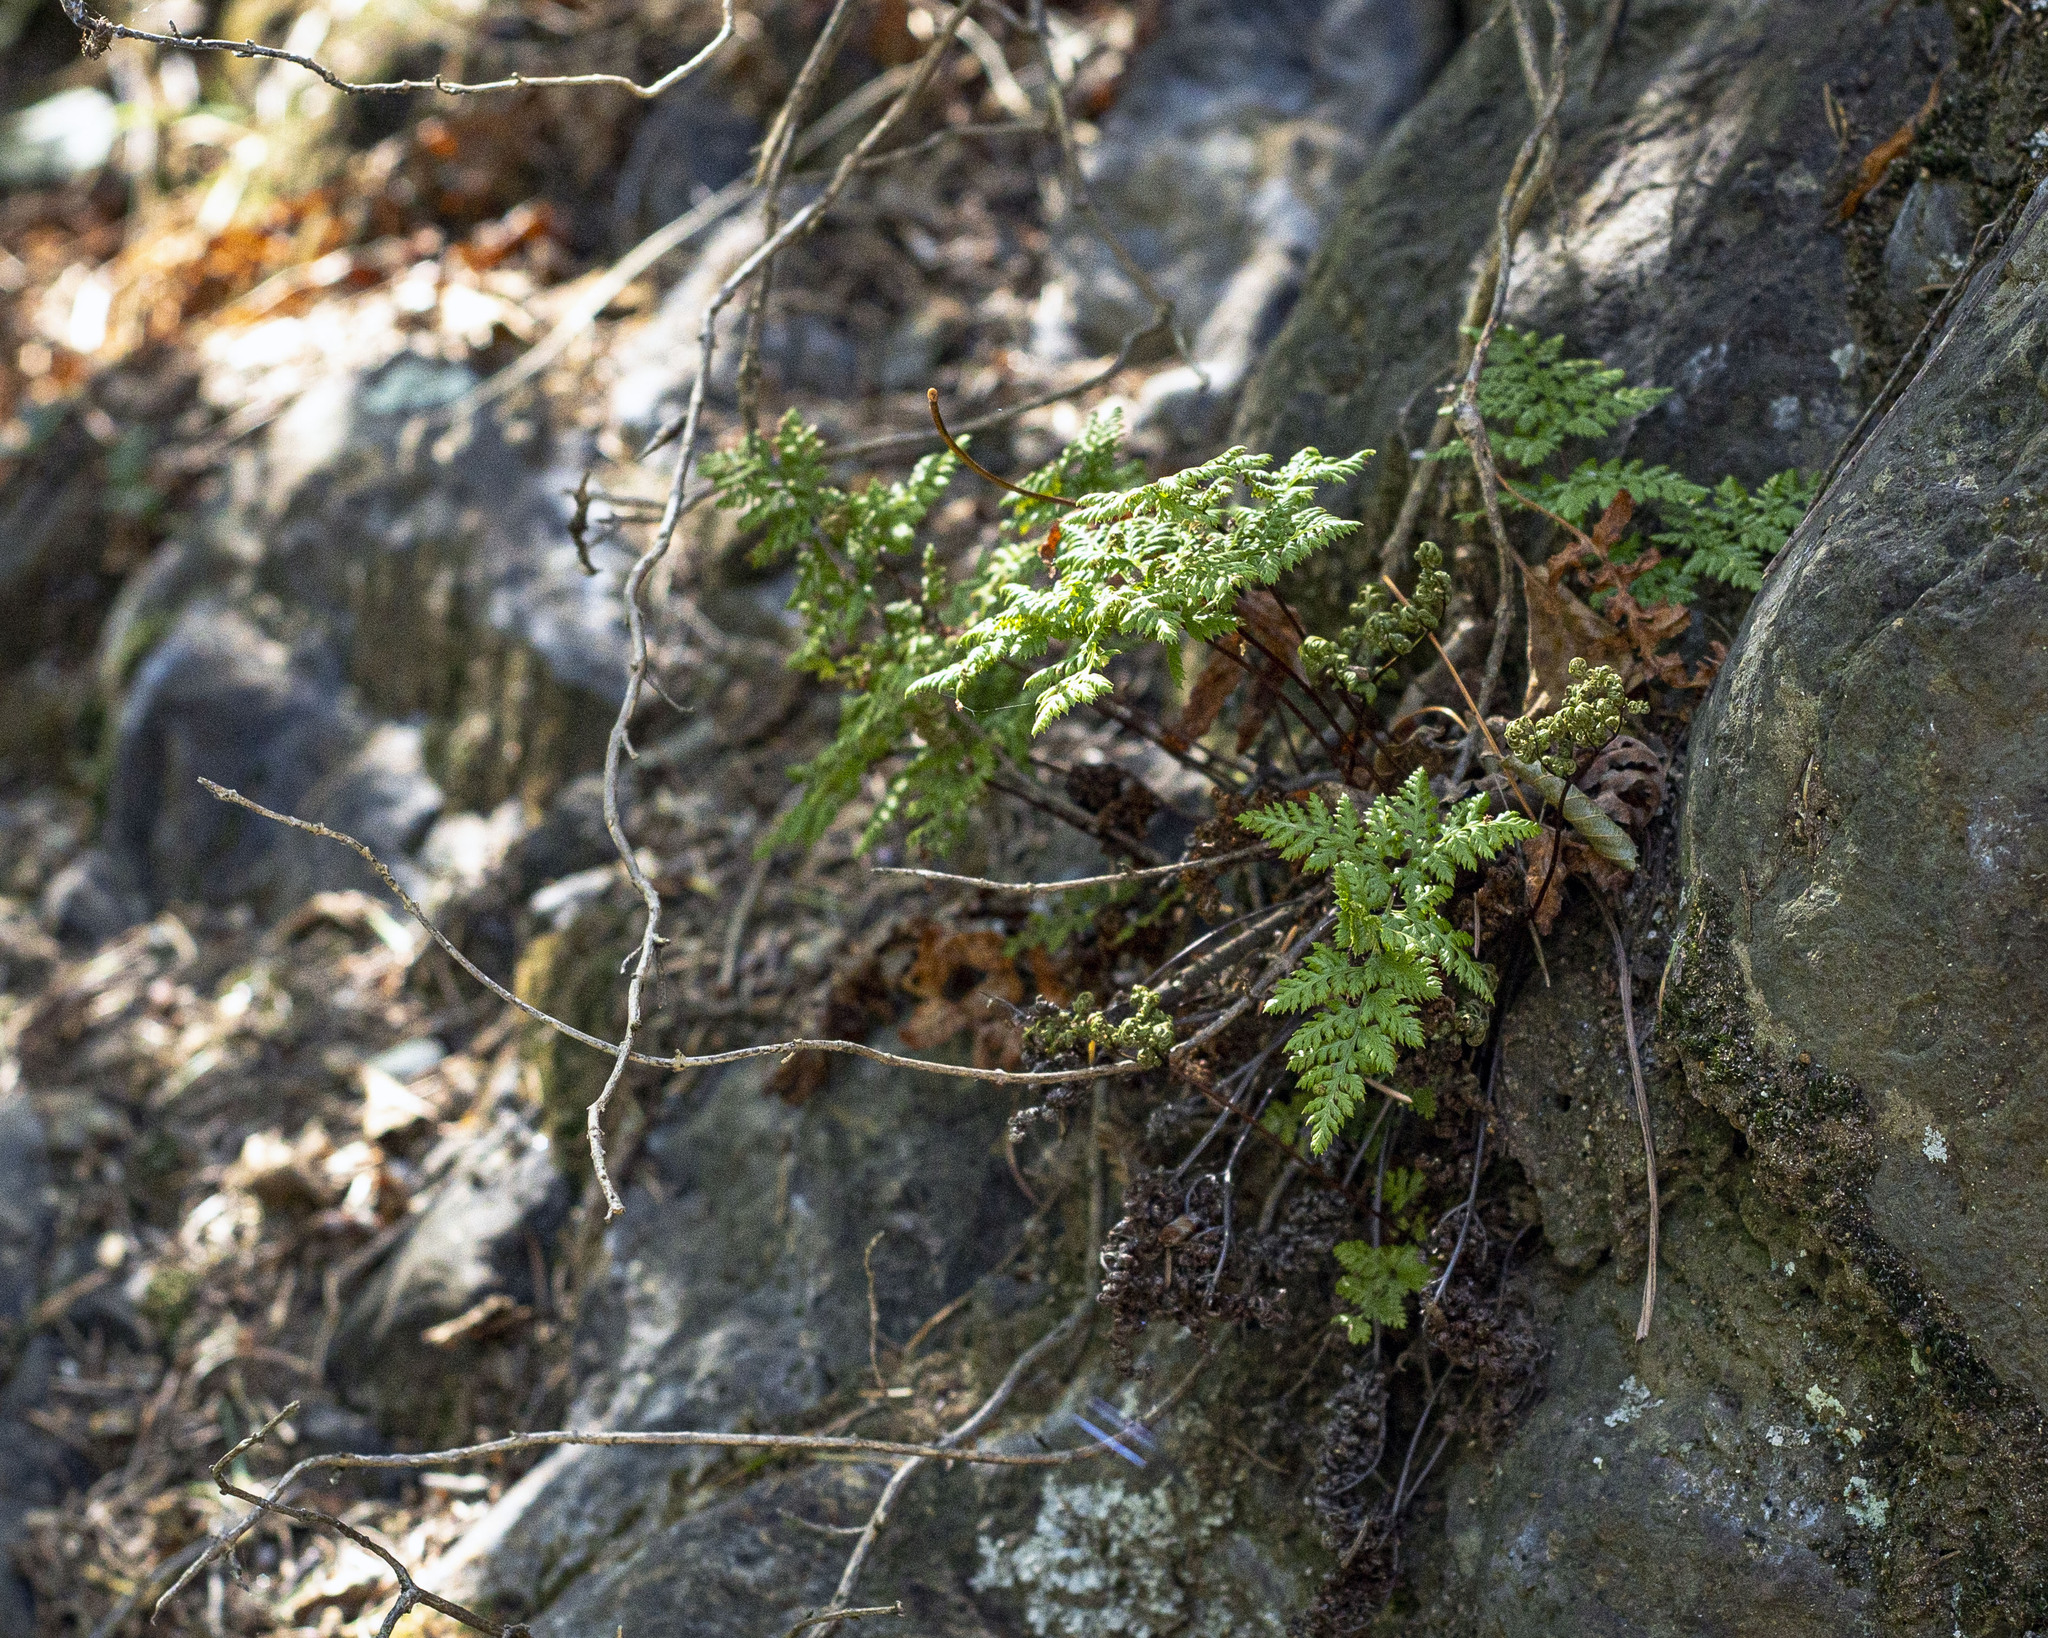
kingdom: Plantae
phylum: Tracheophyta
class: Polypodiopsida
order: Polypodiales
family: Pteridaceae
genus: Aspidotis
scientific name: Aspidotis californica
